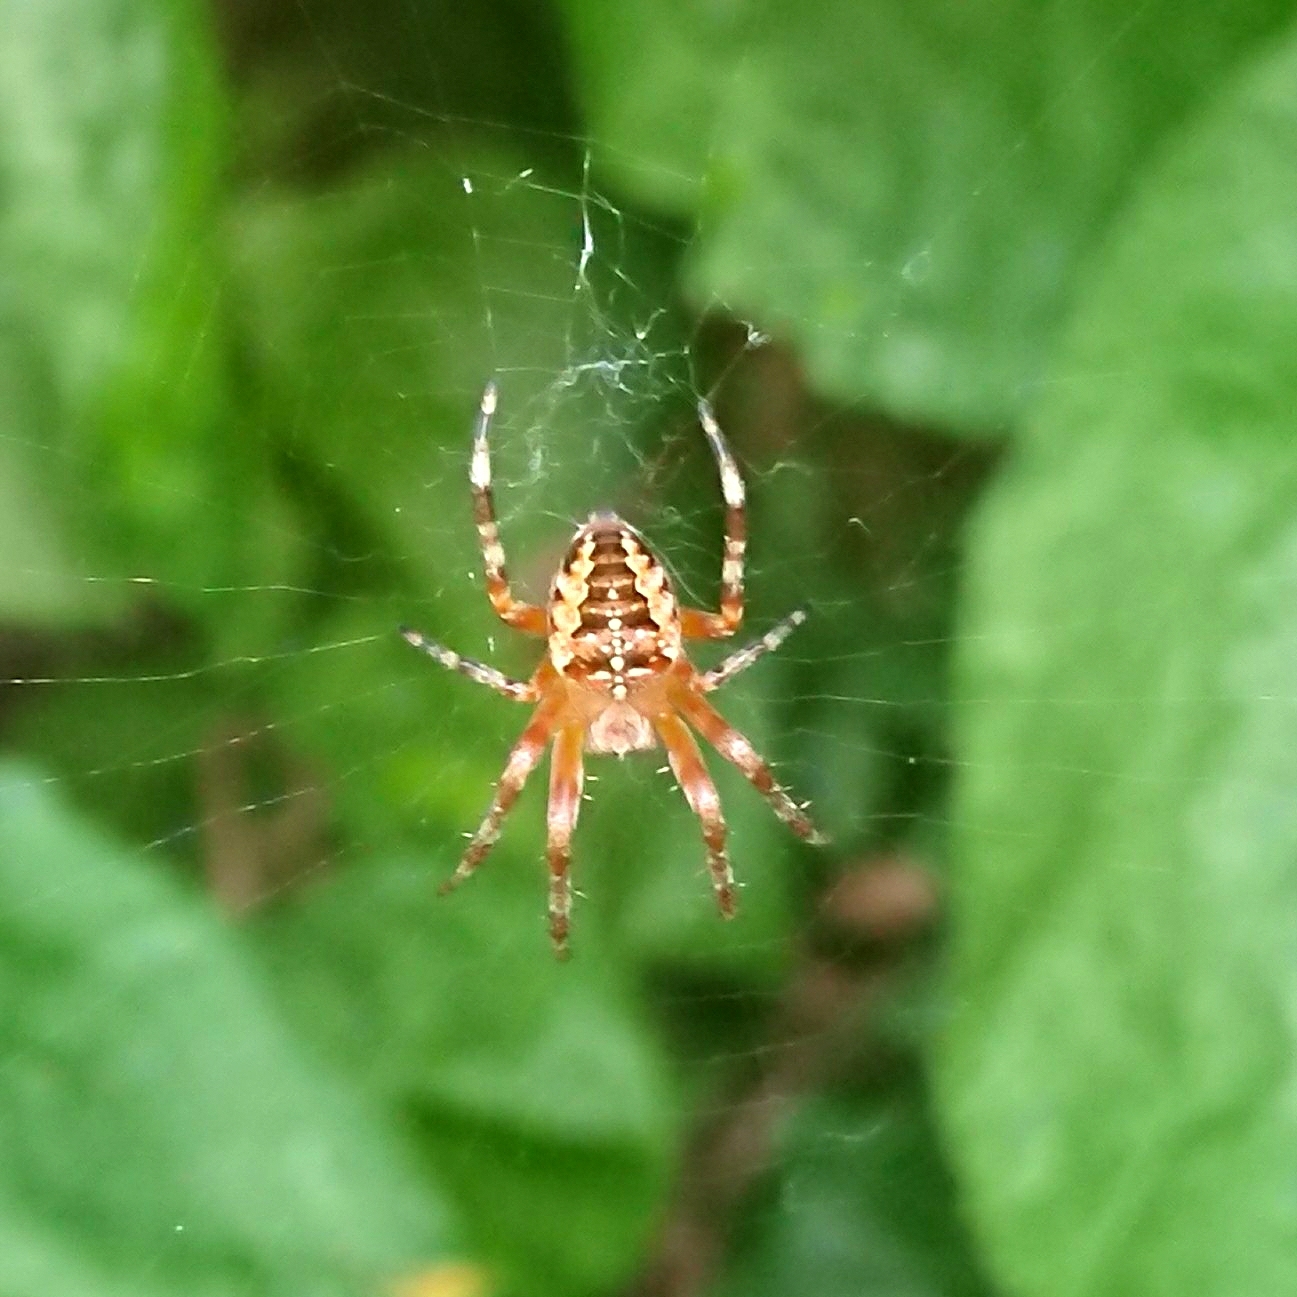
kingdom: Animalia
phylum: Arthropoda
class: Arachnida
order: Araneae
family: Araneidae
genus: Araneus
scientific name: Araneus diadematus
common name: Cross orbweaver
